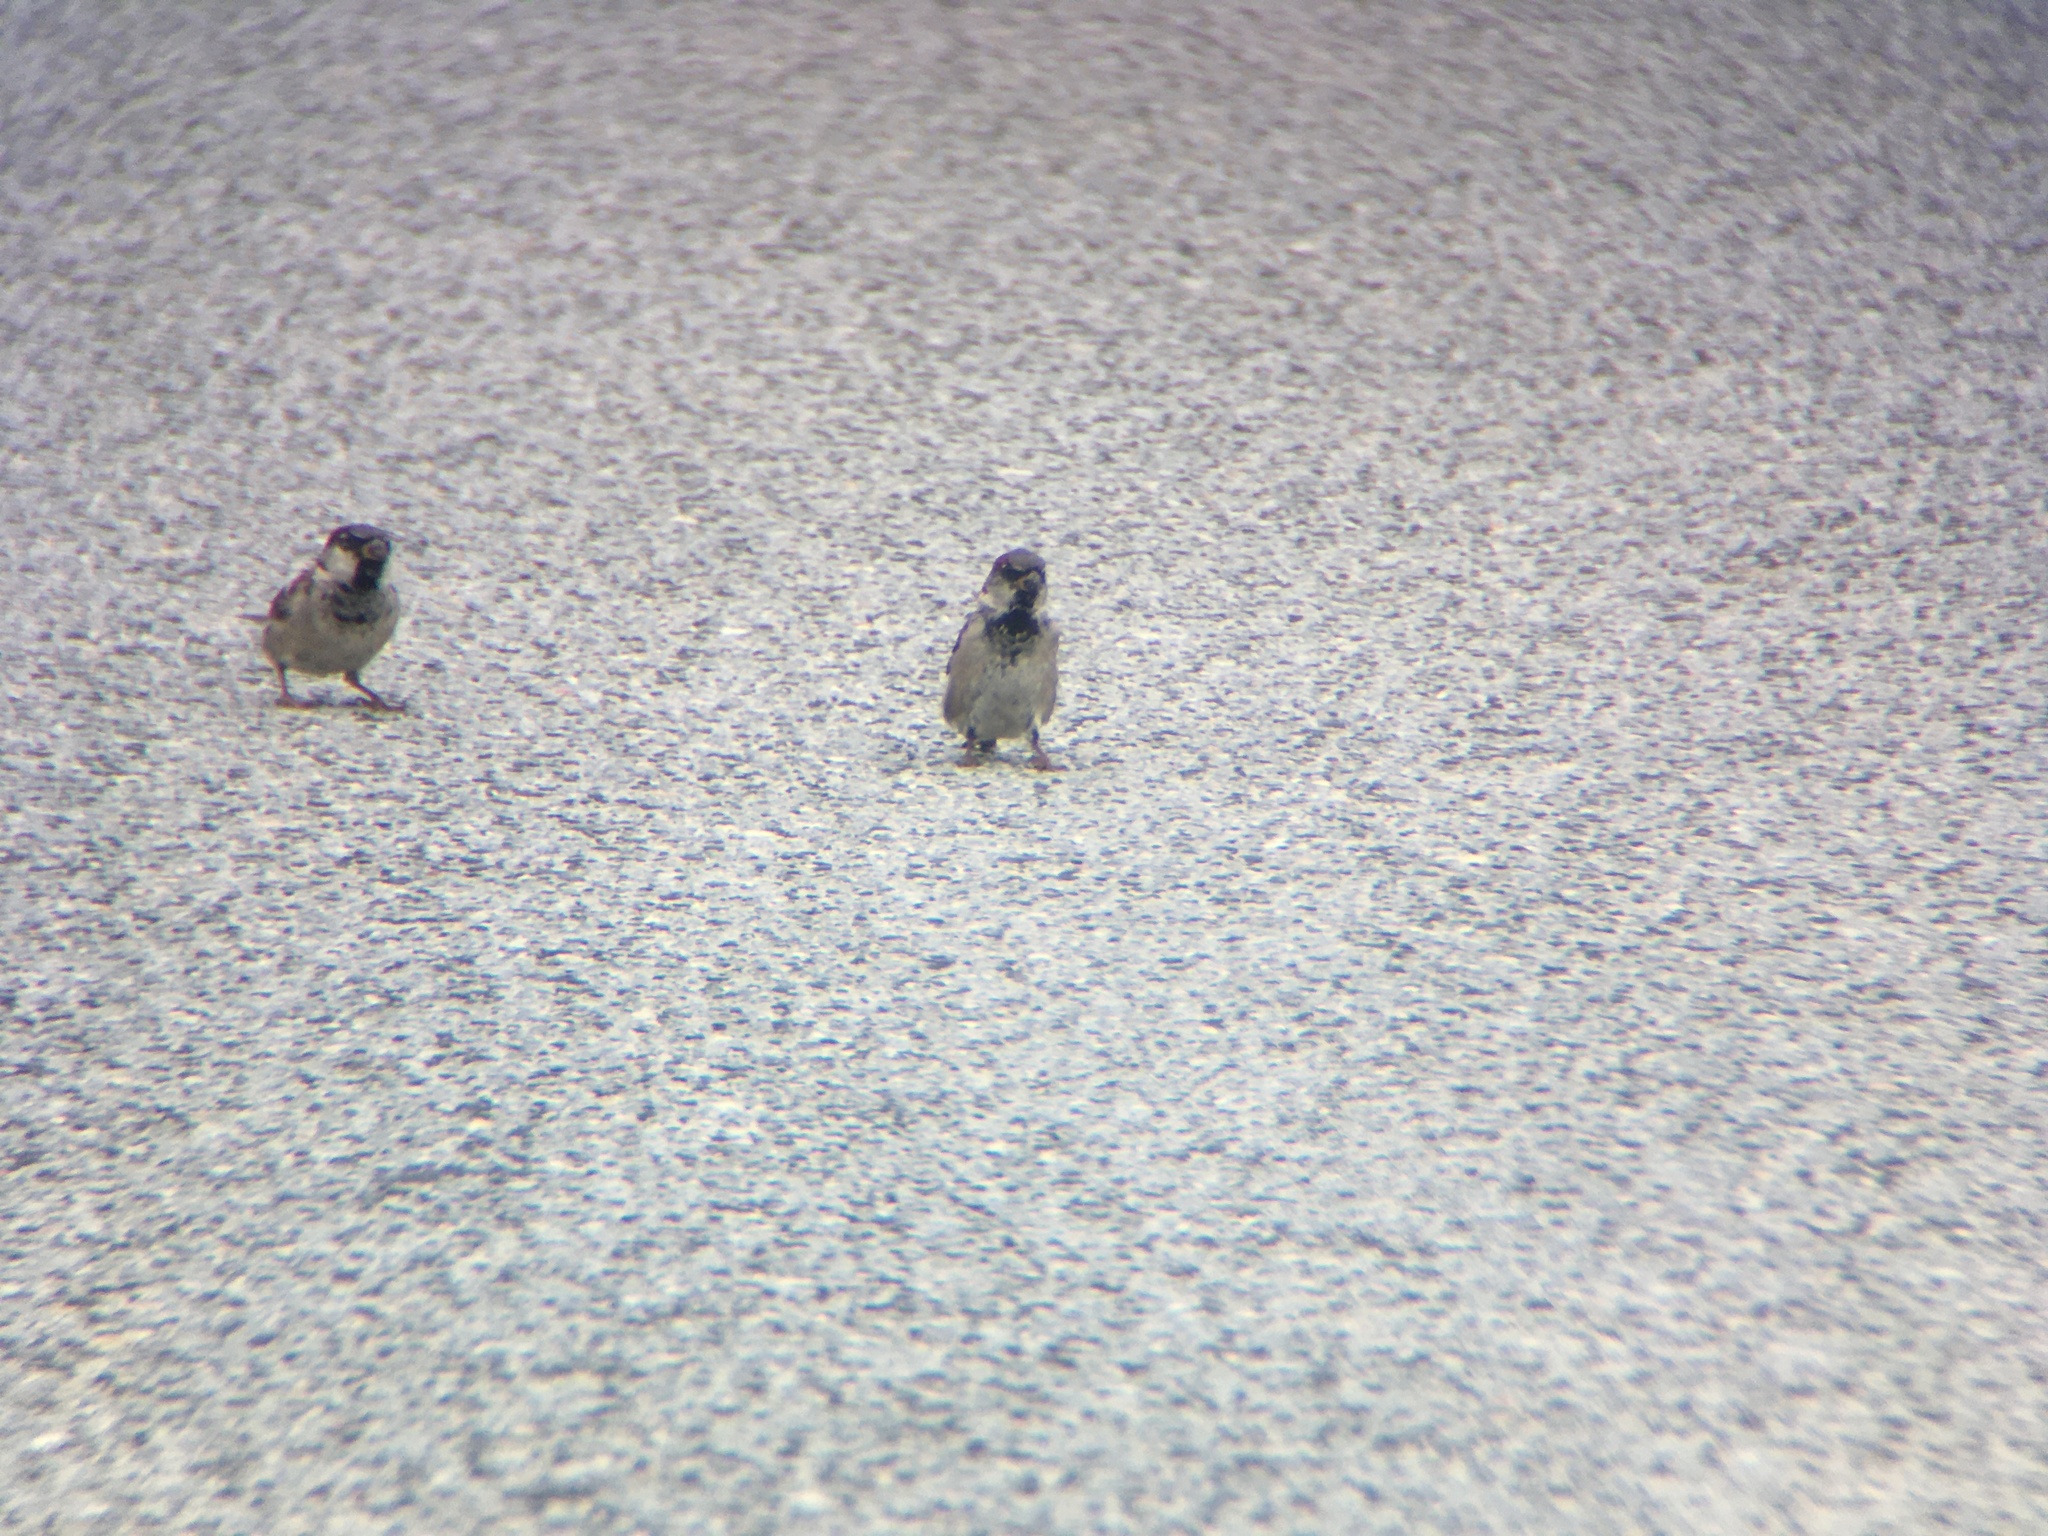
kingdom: Animalia
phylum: Chordata
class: Aves
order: Passeriformes
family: Passeridae
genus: Passer
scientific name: Passer domesticus
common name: House sparrow
